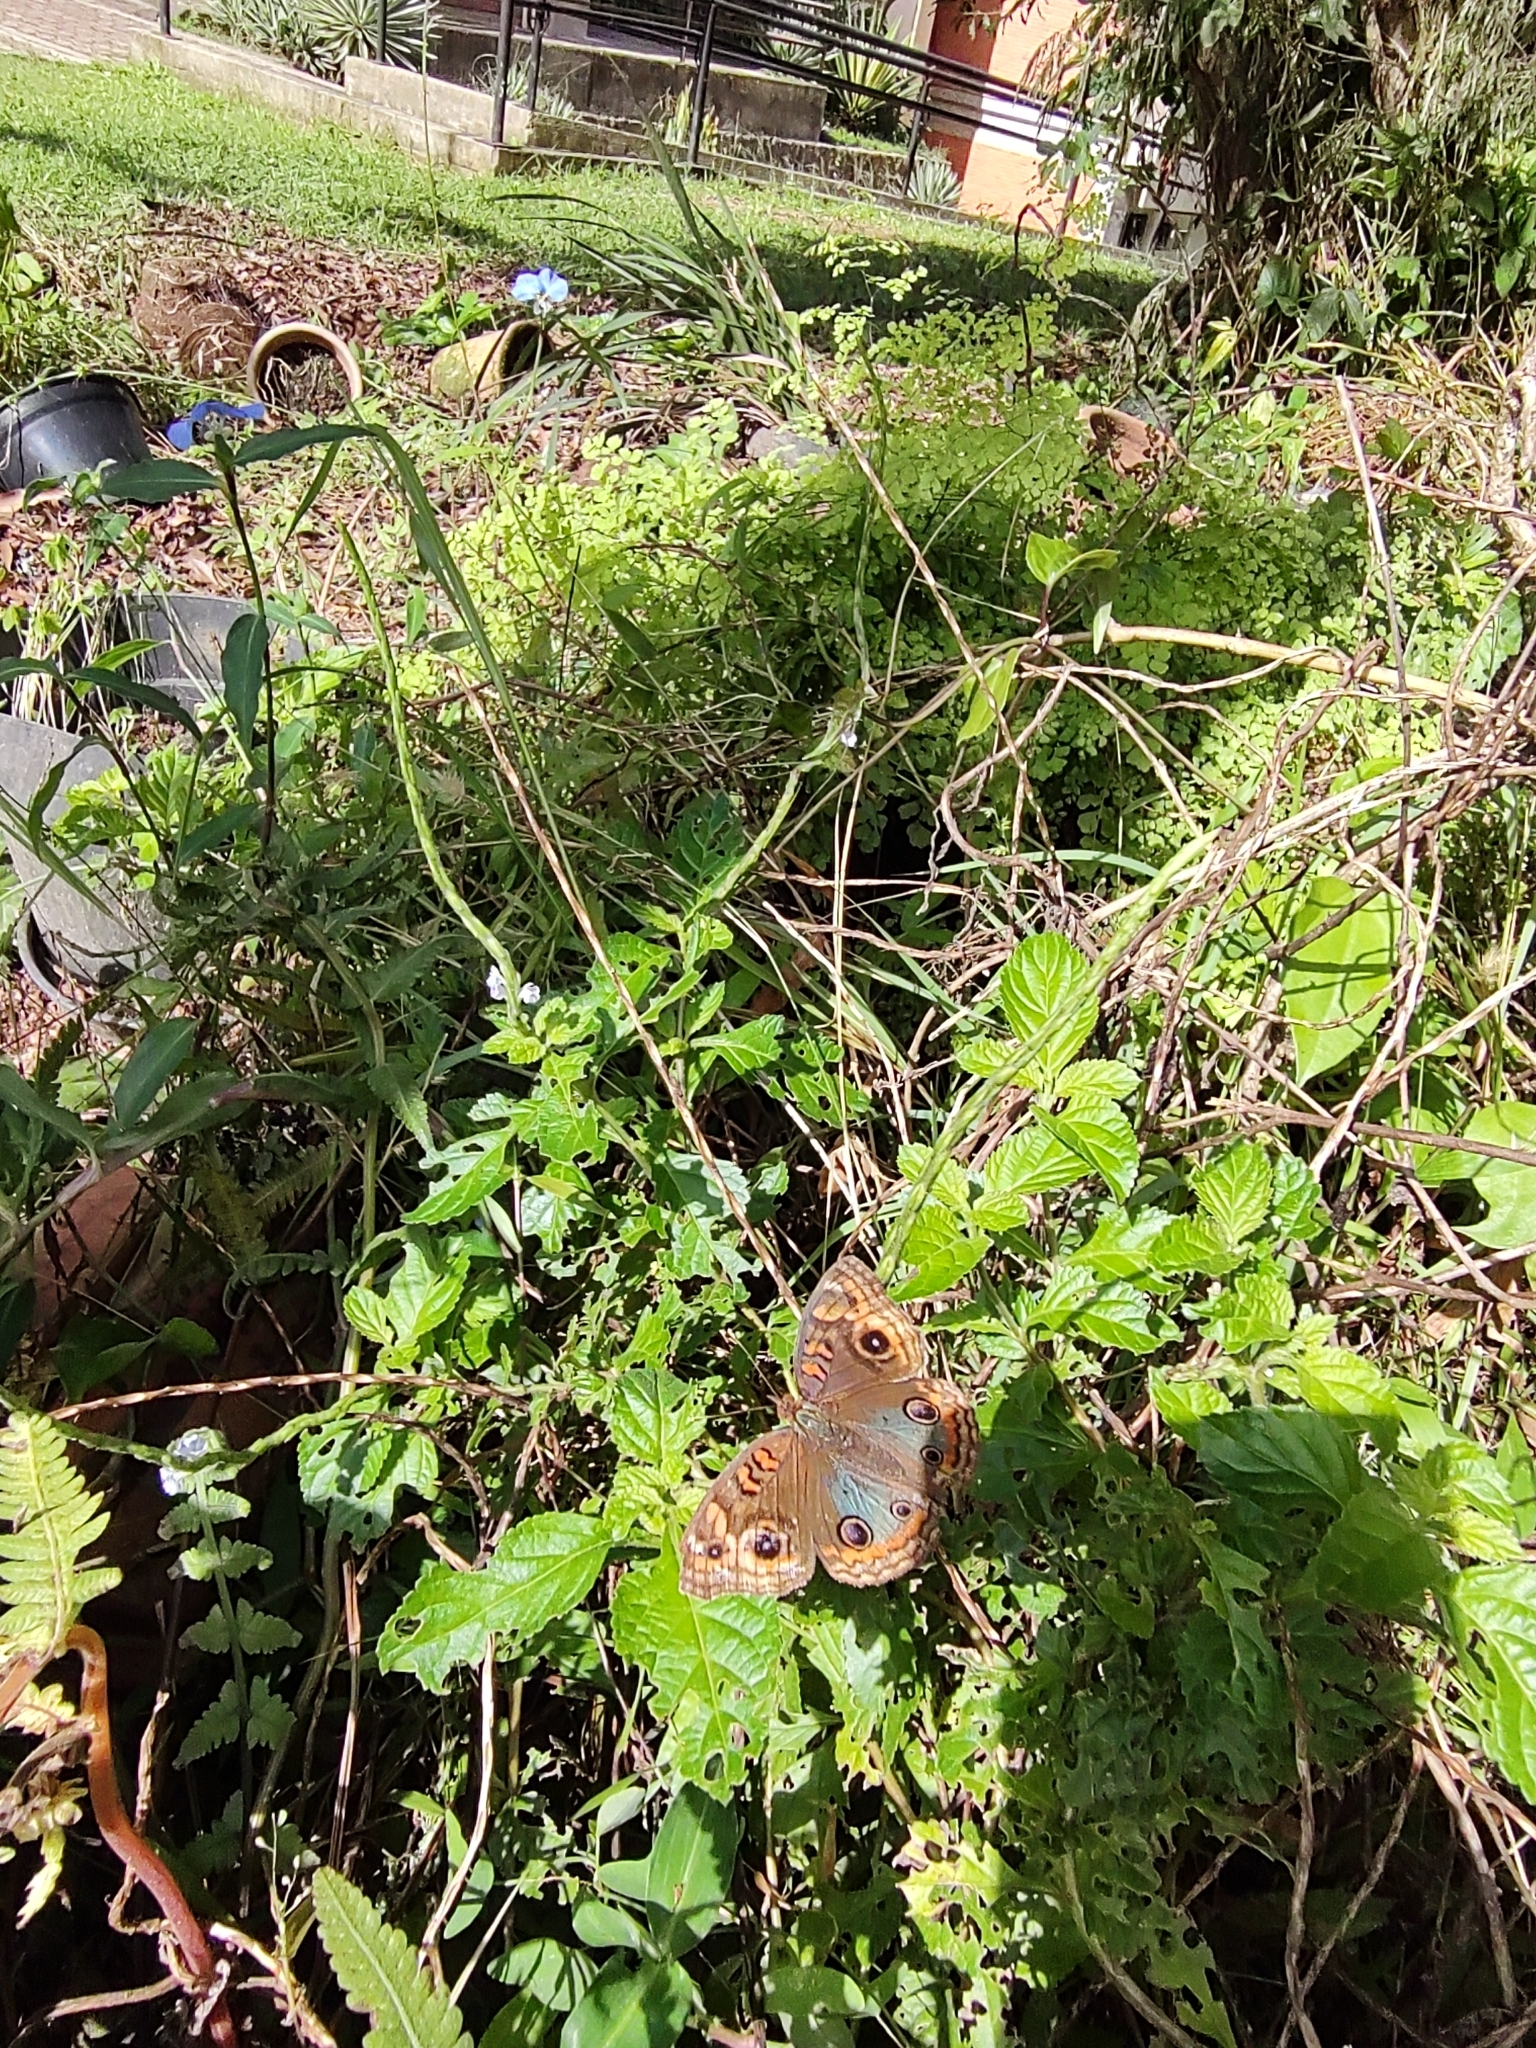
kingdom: Animalia
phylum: Arthropoda
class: Insecta
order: Lepidoptera
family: Nymphalidae
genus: Junonia
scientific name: Junonia evarete
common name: Black mangrove buckeye
